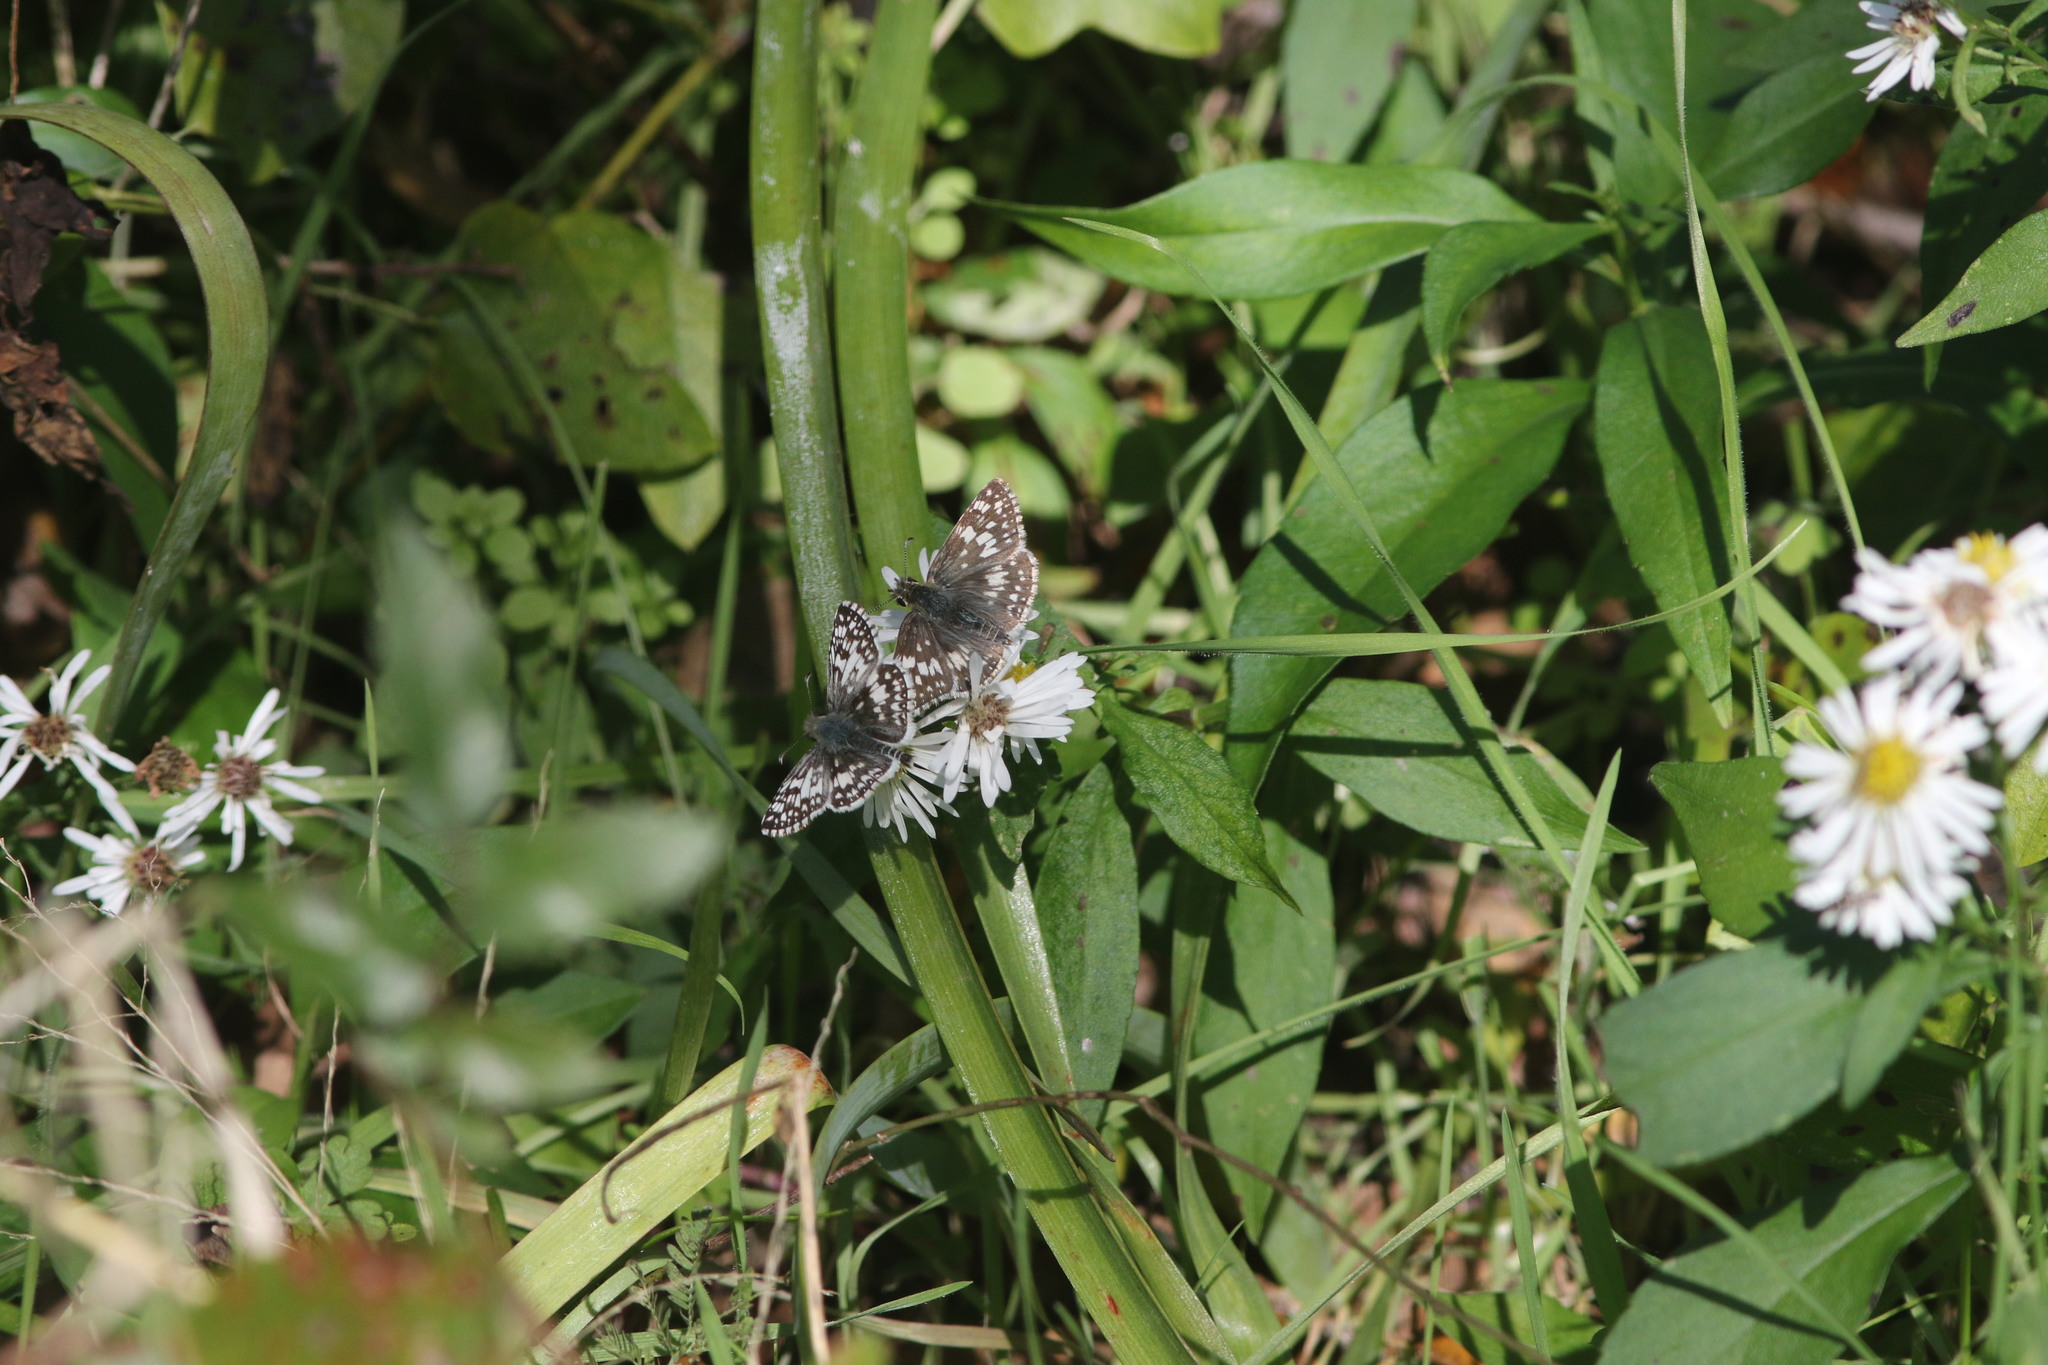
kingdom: Animalia
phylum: Arthropoda
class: Insecta
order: Lepidoptera
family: Hesperiidae
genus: Burnsius
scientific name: Burnsius
